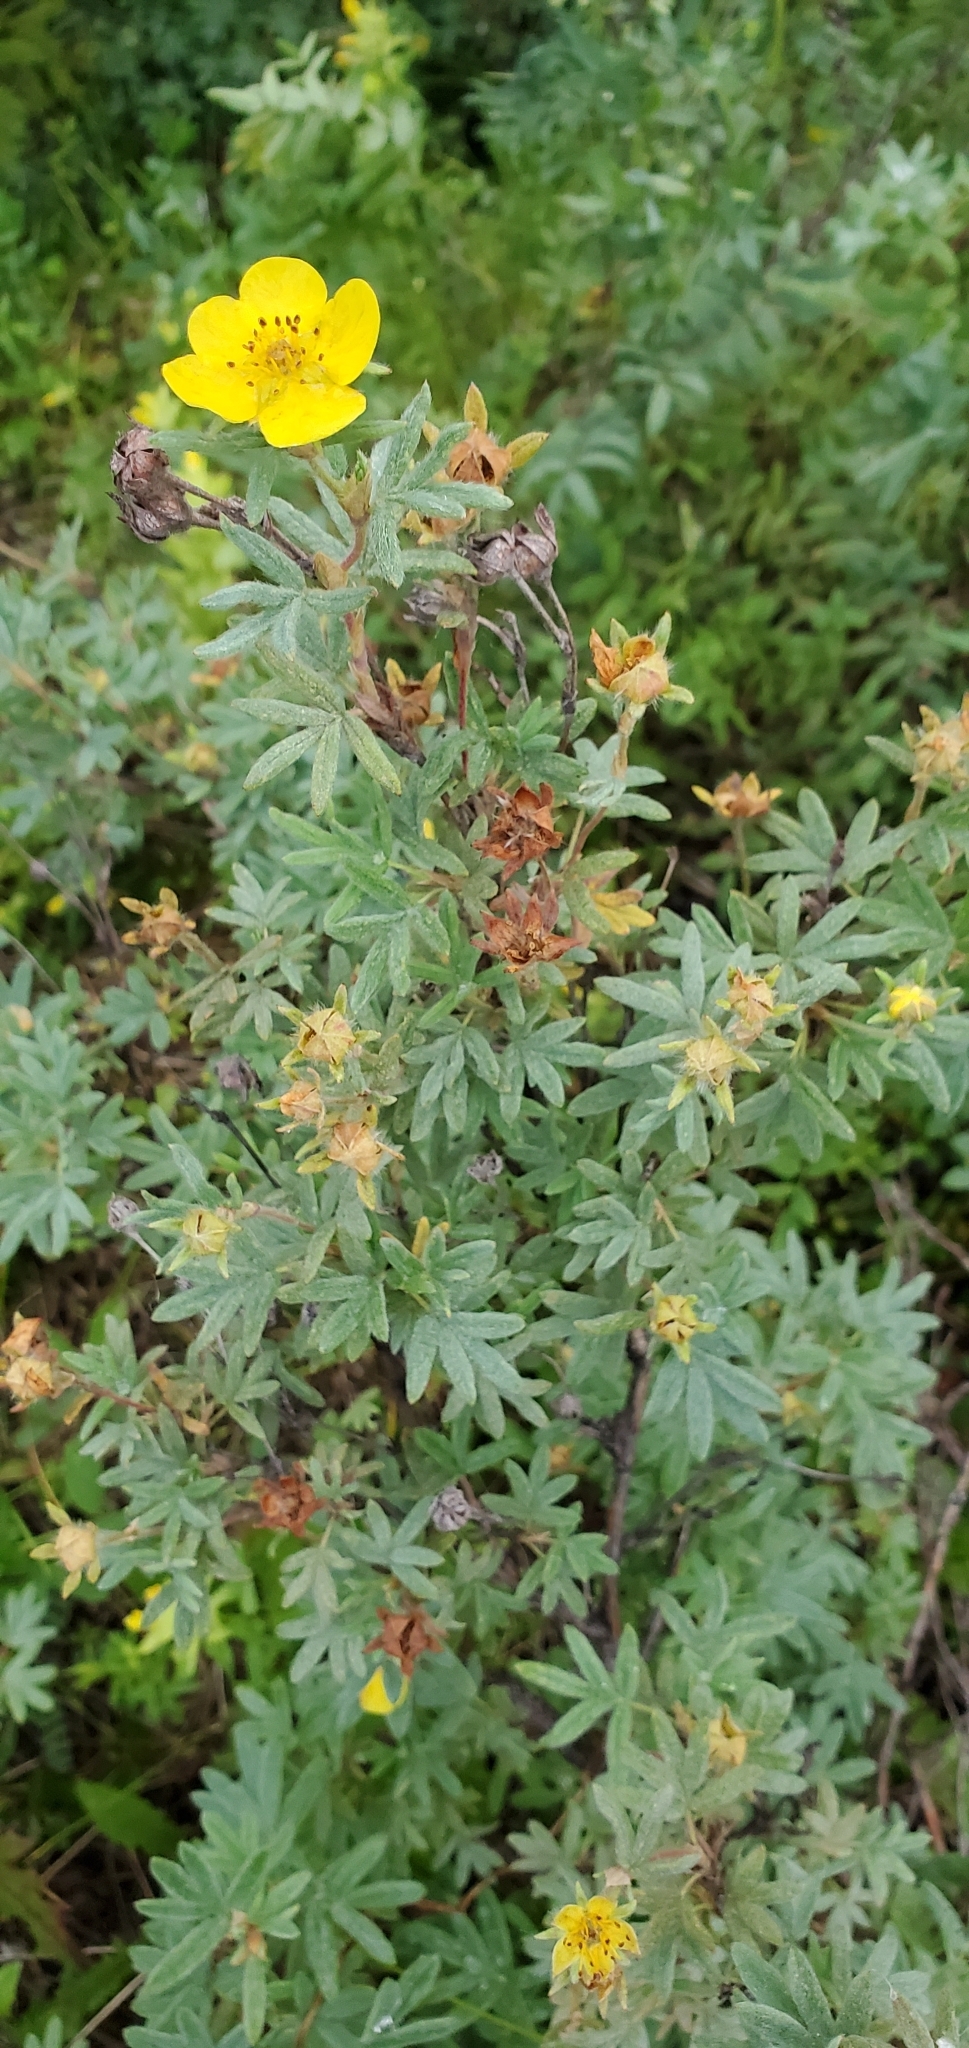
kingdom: Plantae
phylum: Tracheophyta
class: Magnoliopsida
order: Rosales
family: Rosaceae
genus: Dasiphora
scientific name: Dasiphora fruticosa
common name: Shrubby cinquefoil
